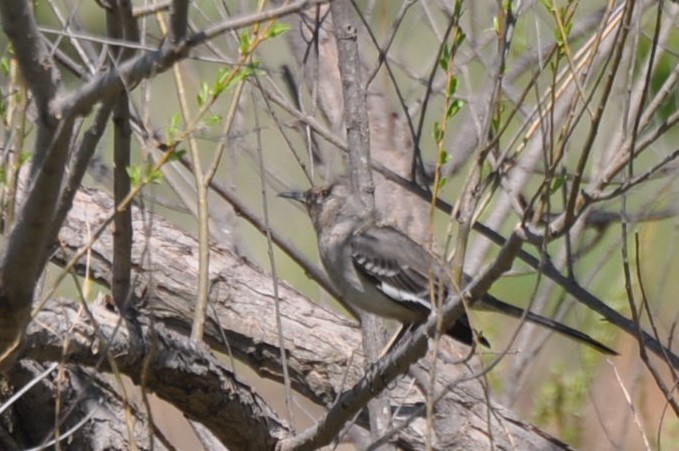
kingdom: Animalia
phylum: Chordata
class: Aves
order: Passeriformes
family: Mimidae
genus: Mimus
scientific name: Mimus polyglottos
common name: Northern mockingbird
